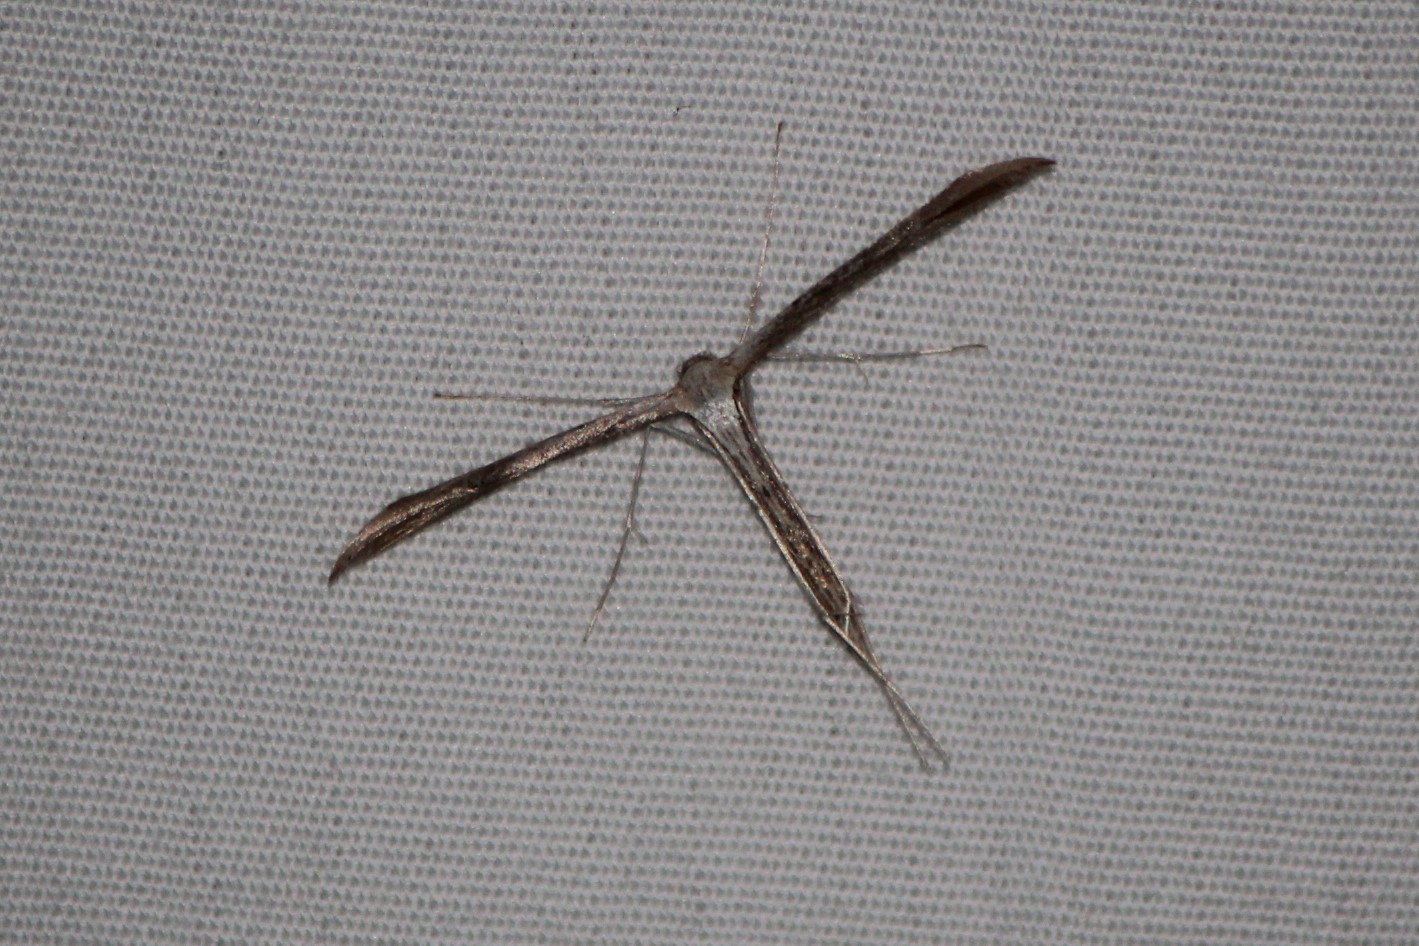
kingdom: Animalia
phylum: Arthropoda
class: Insecta
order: Lepidoptera
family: Pterophoridae
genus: Emmelina
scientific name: Emmelina monodactyla
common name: Common plume
